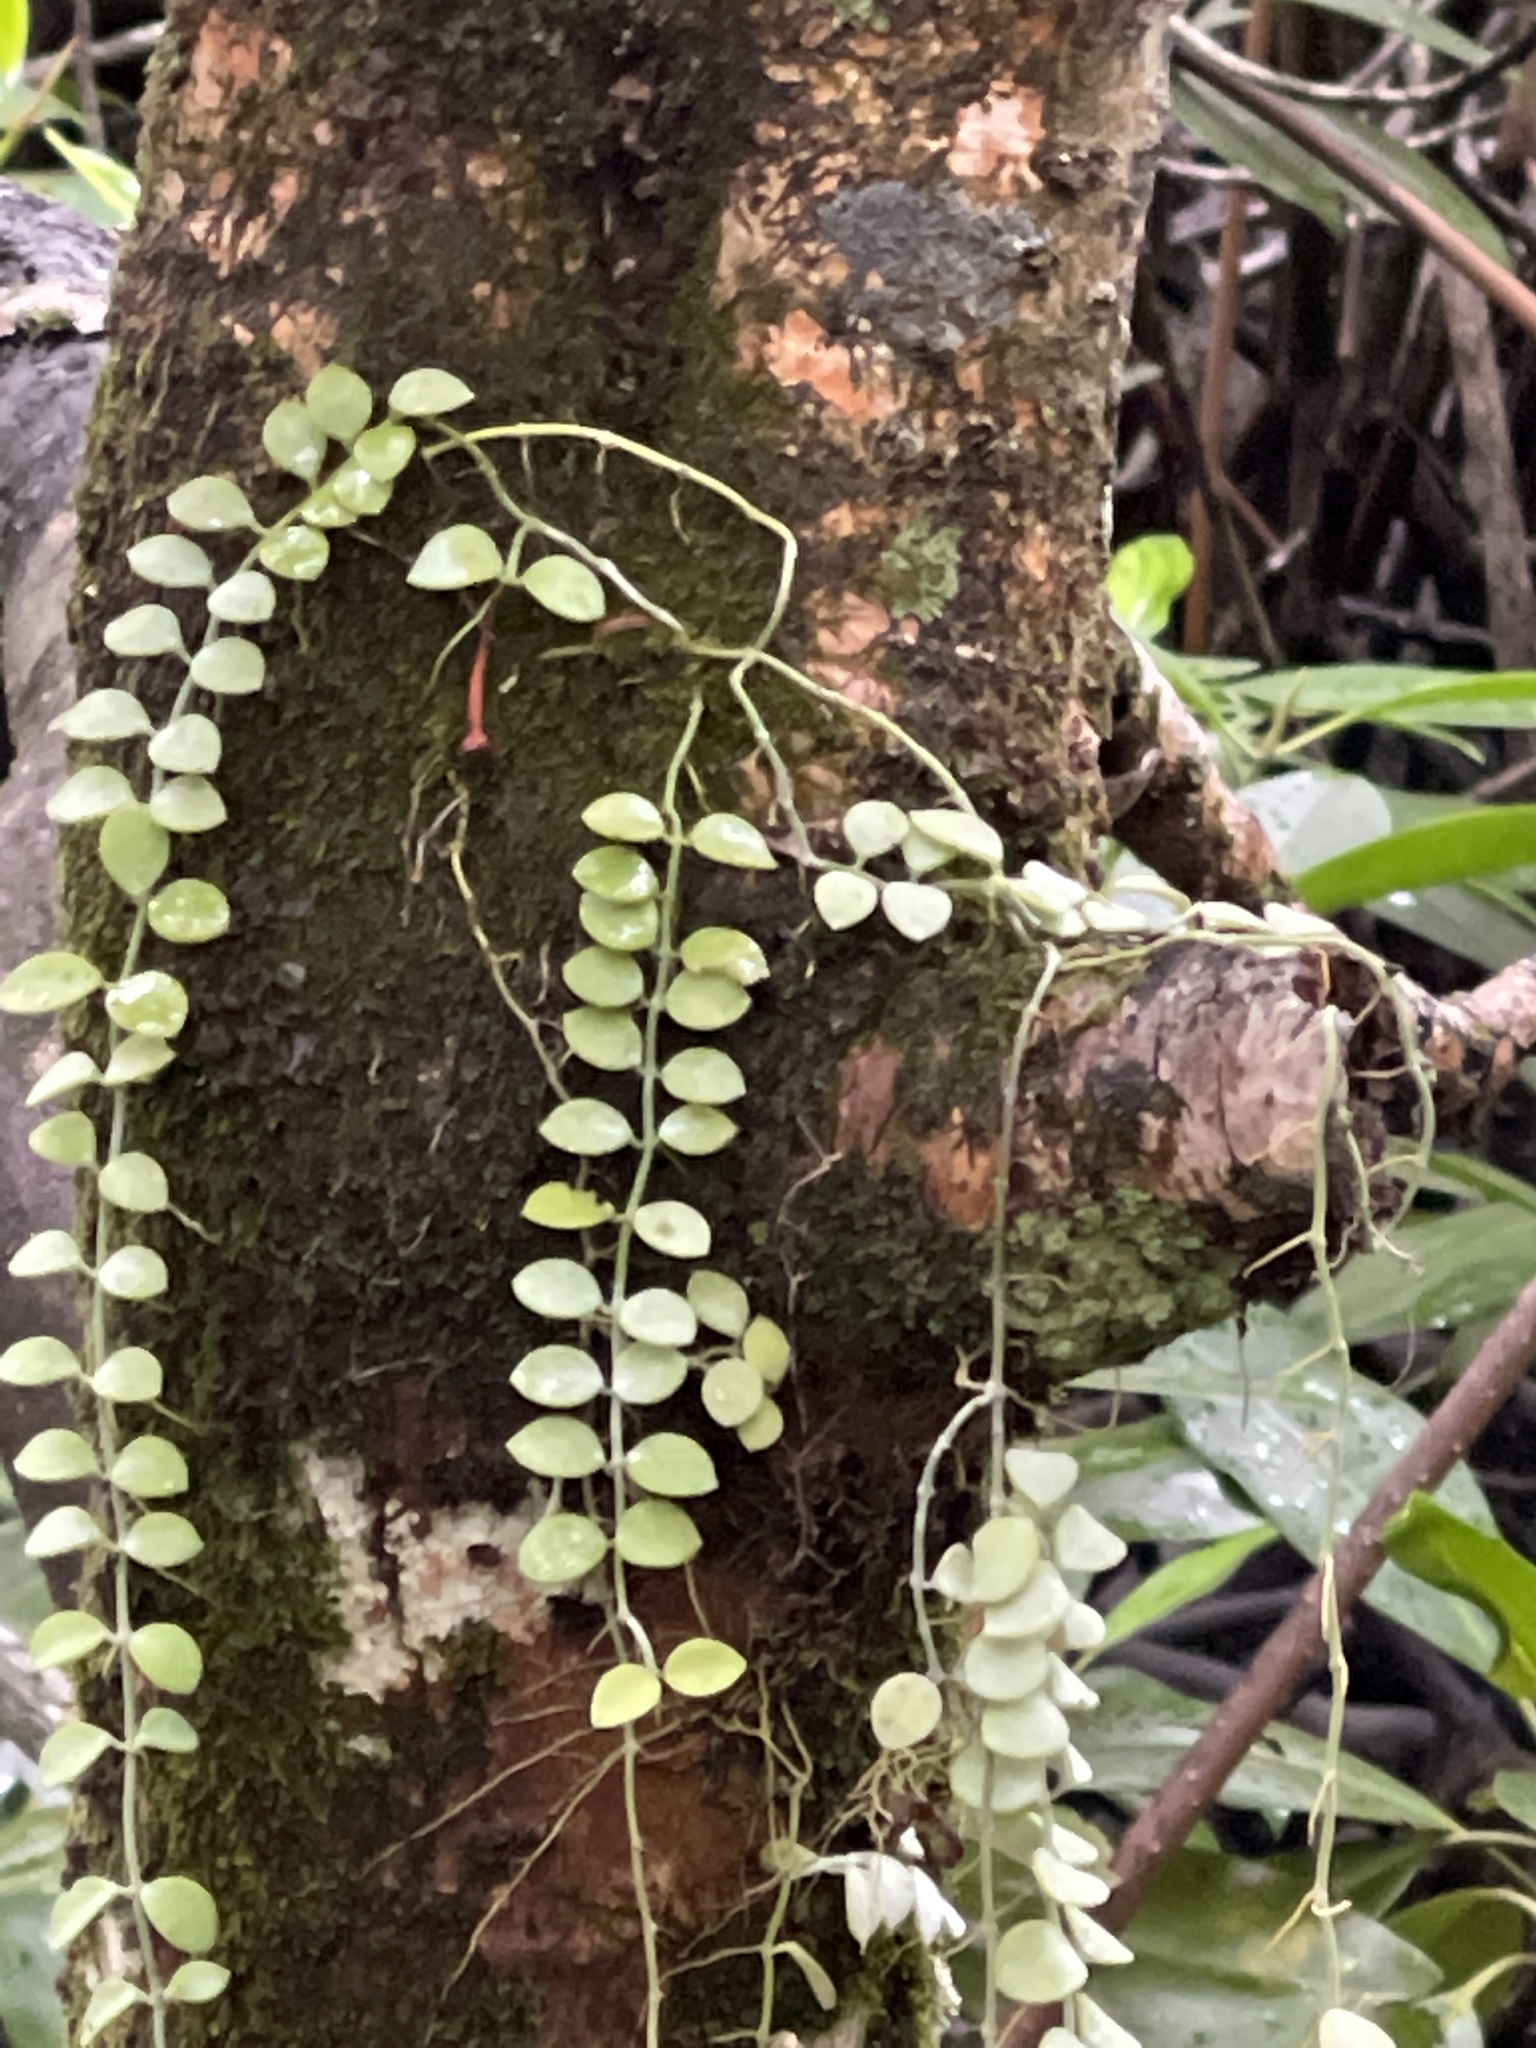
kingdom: Plantae
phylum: Tracheophyta
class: Magnoliopsida
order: Gentianales
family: Apocynaceae
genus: Dischidia
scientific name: Dischidia nummularia
